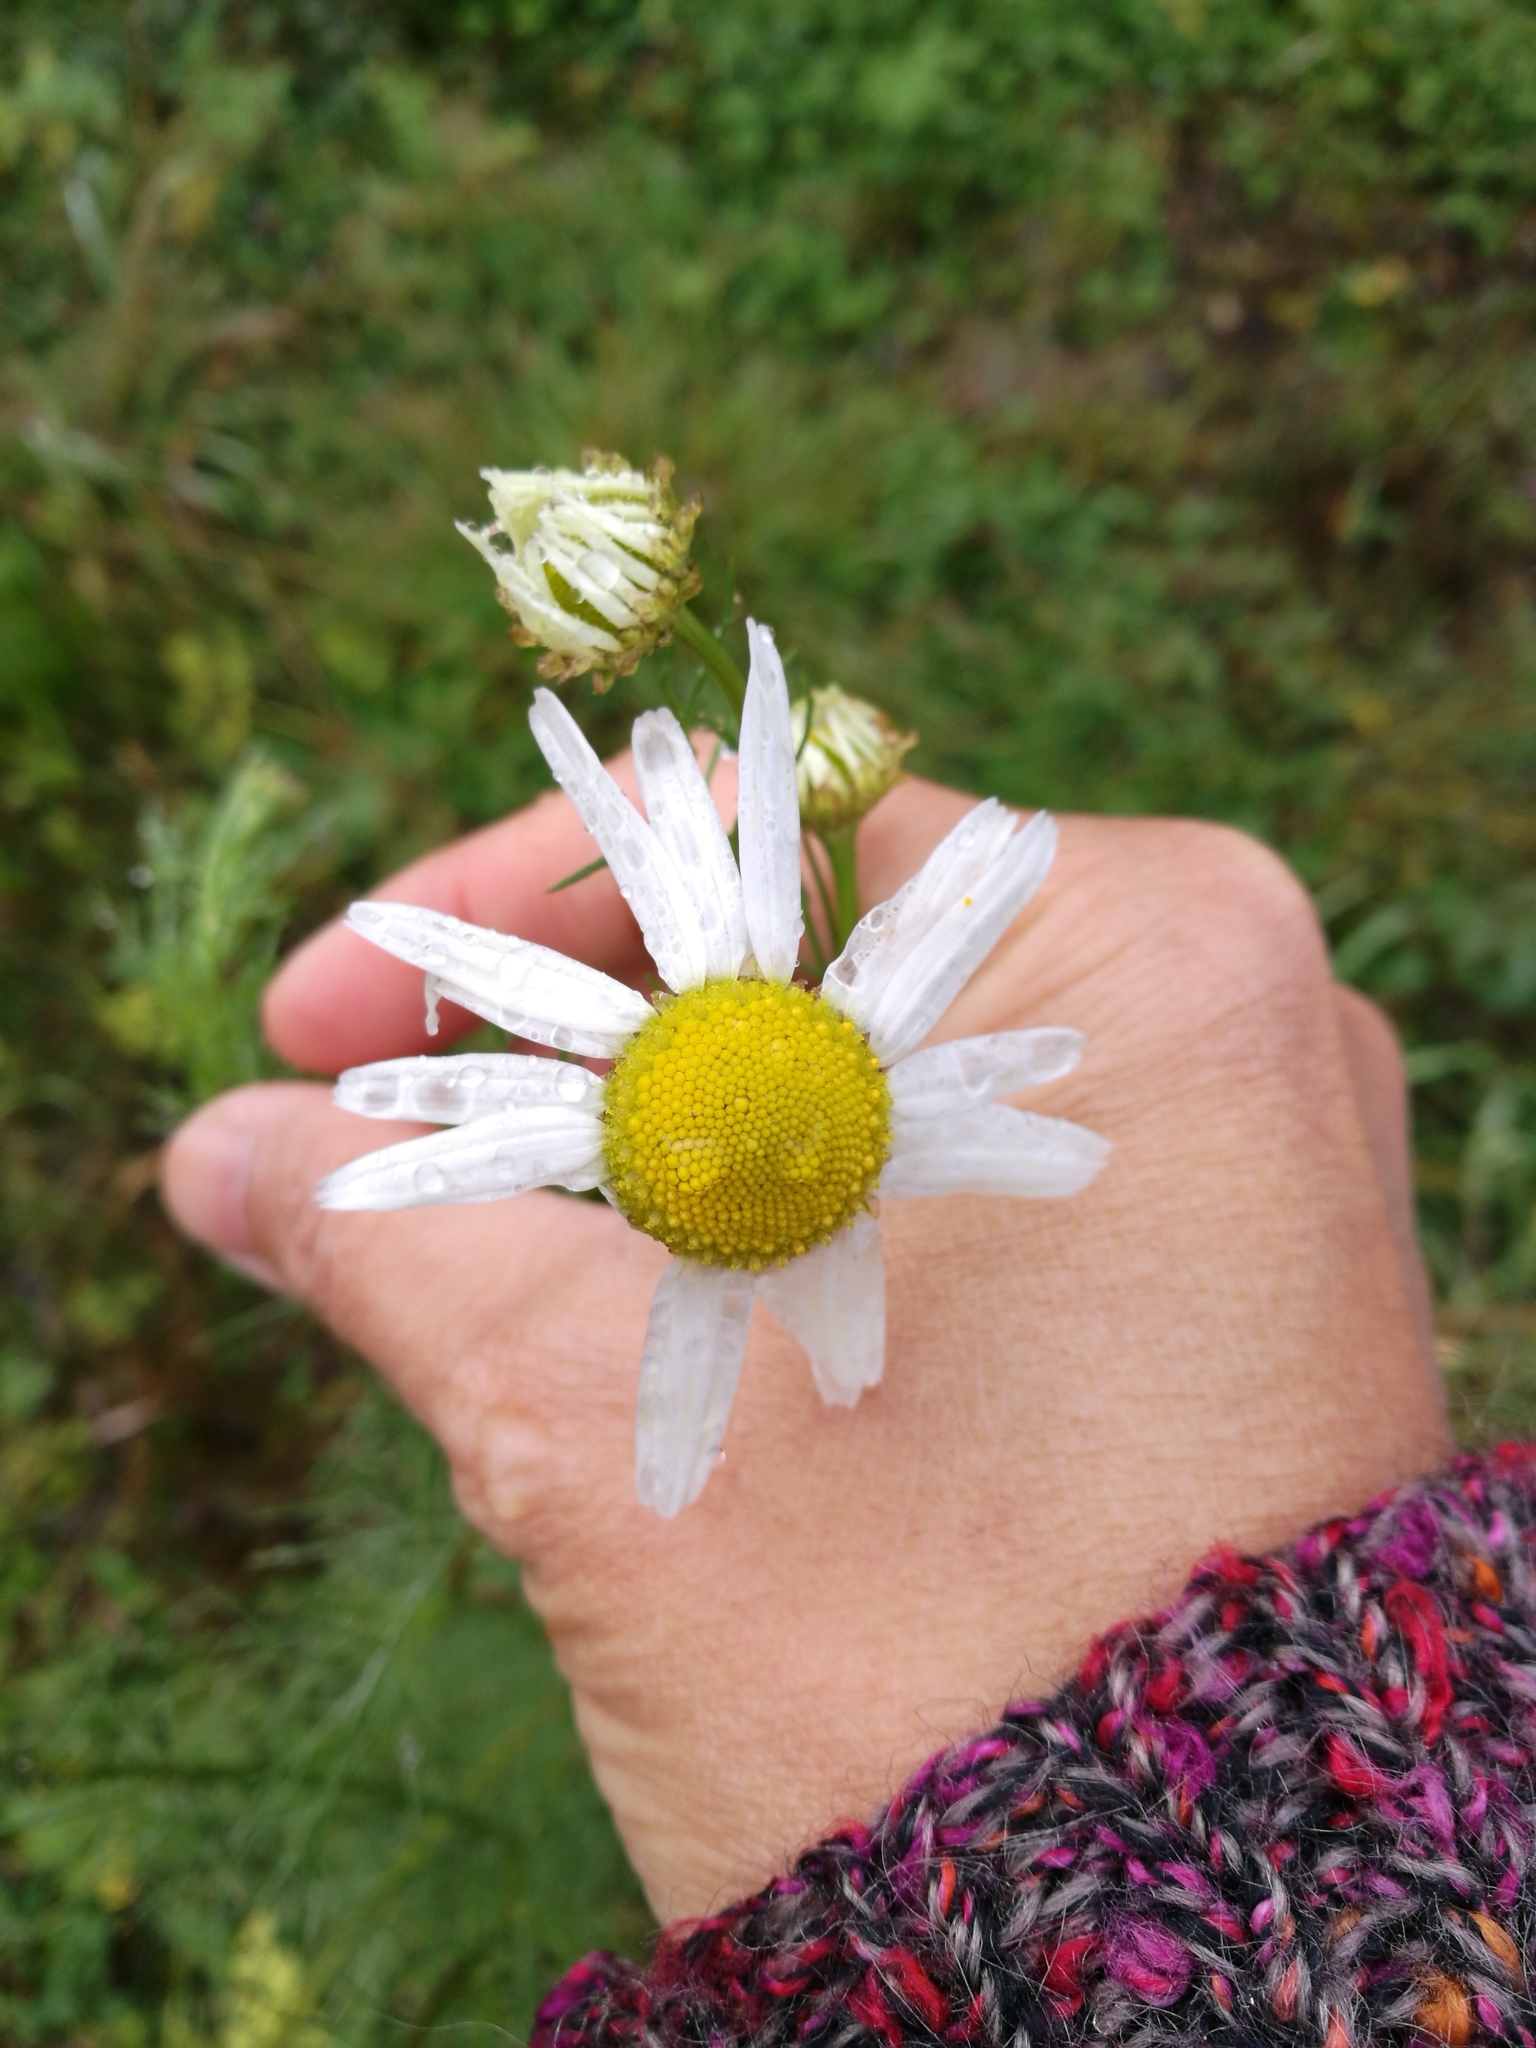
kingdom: Plantae
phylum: Tracheophyta
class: Magnoliopsida
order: Asterales
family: Asteraceae
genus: Tripleurospermum
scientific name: Tripleurospermum inodorum
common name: Scentless mayweed
